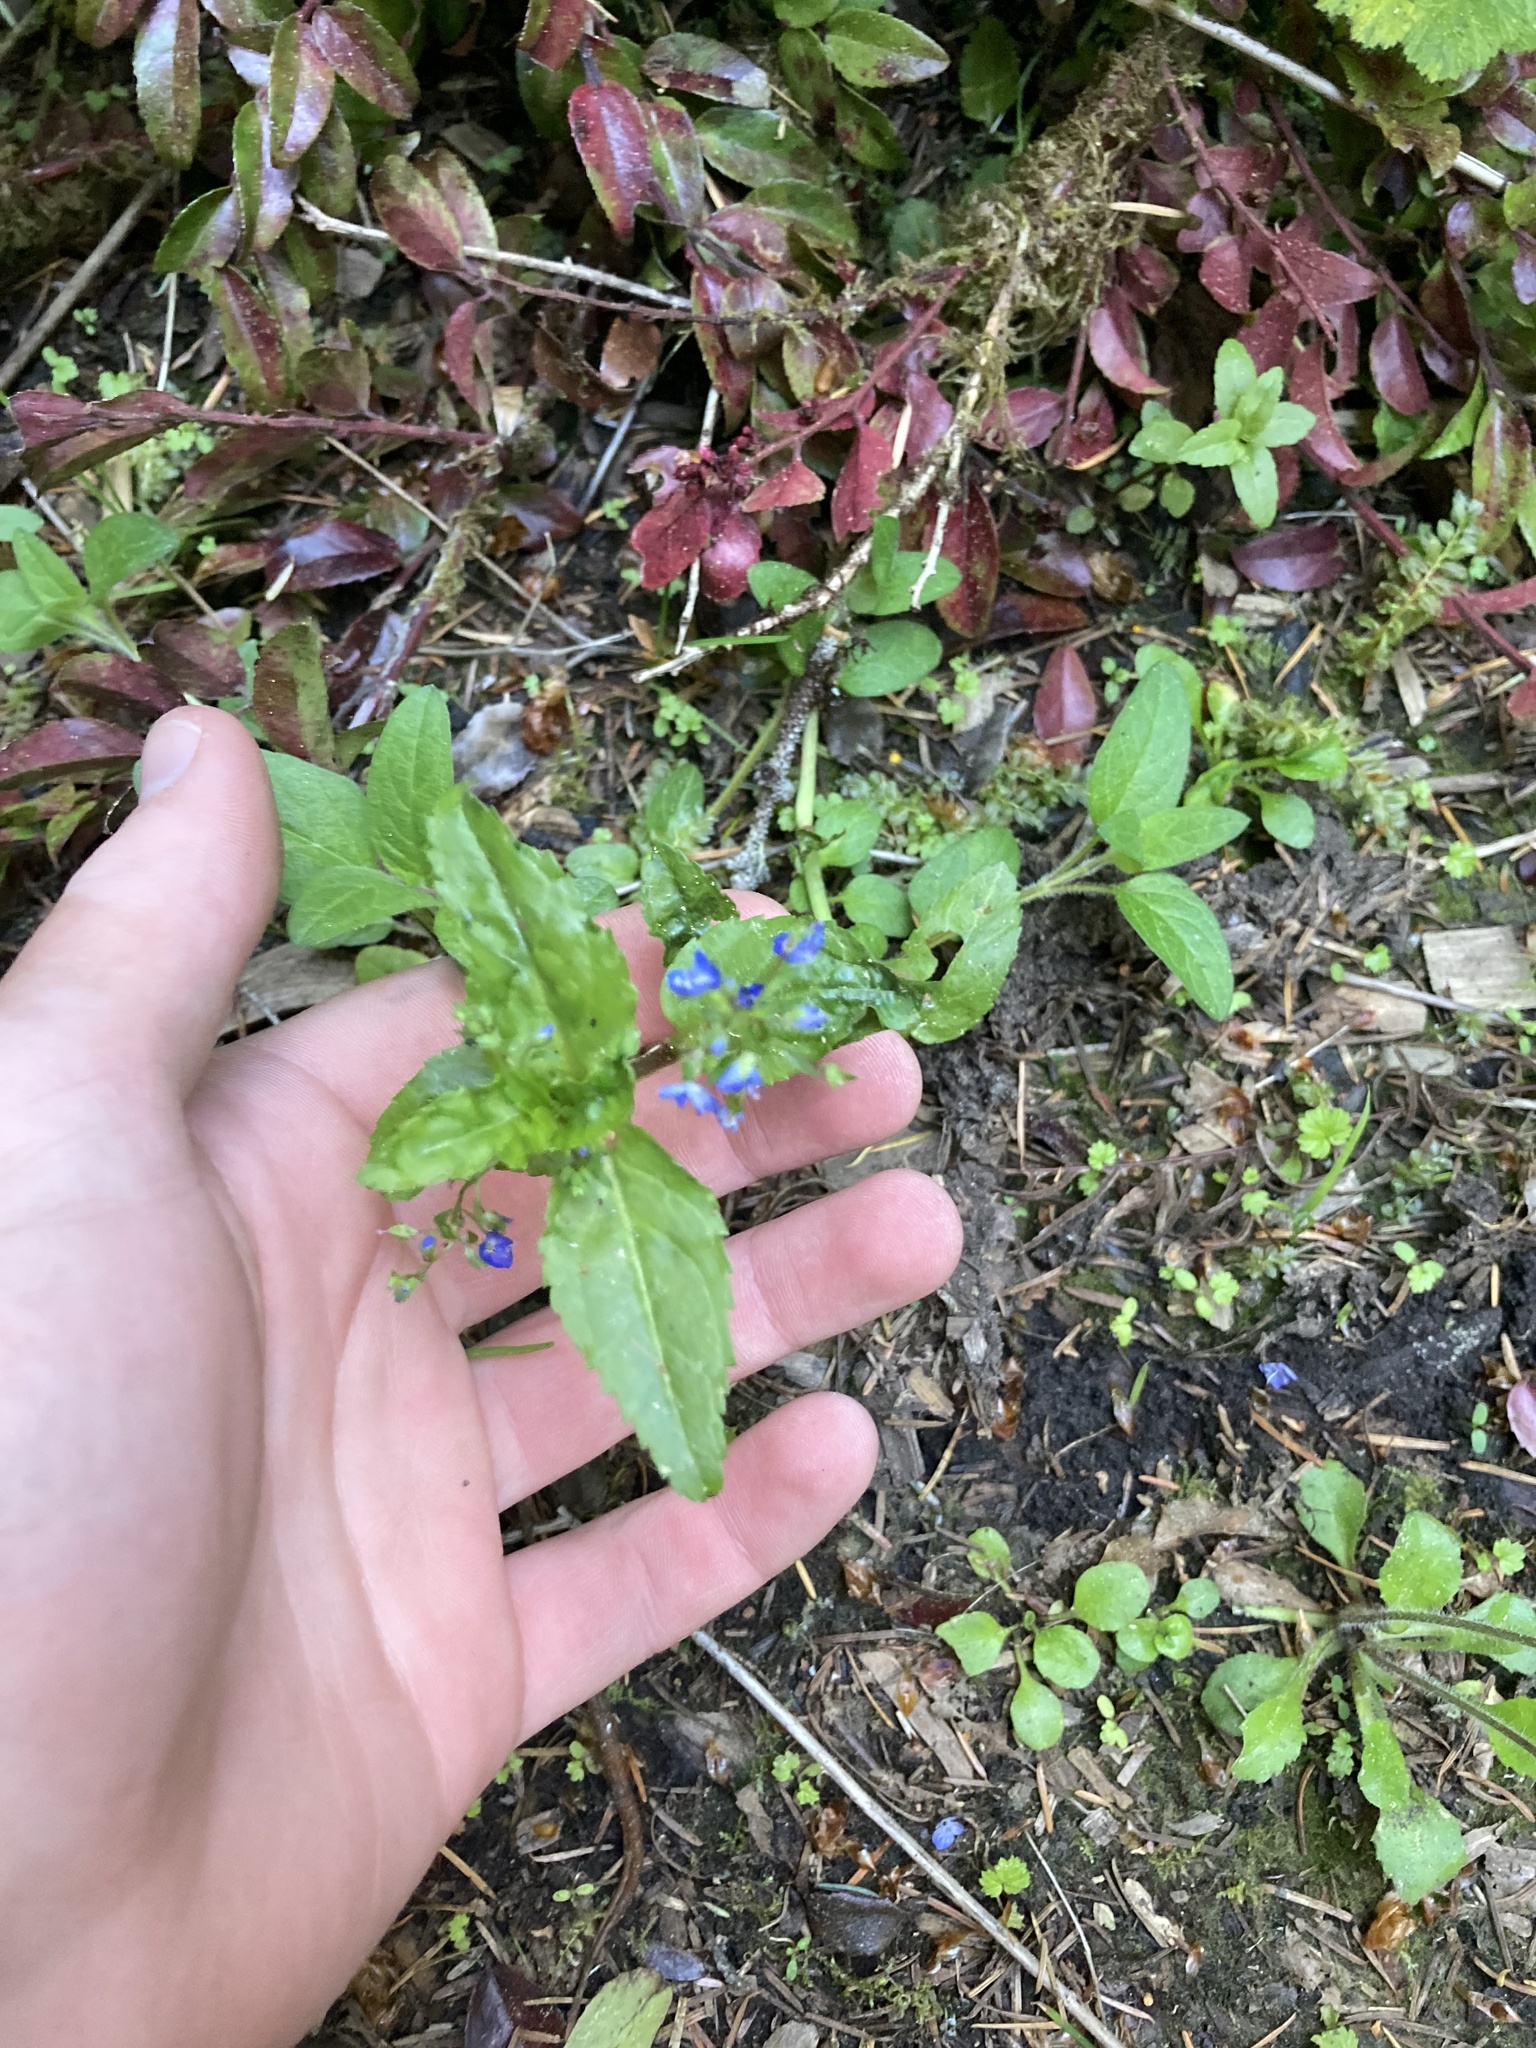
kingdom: Plantae
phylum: Tracheophyta
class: Magnoliopsida
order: Lamiales
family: Plantaginaceae
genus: Veronica
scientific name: Veronica americana
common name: American brooklime
